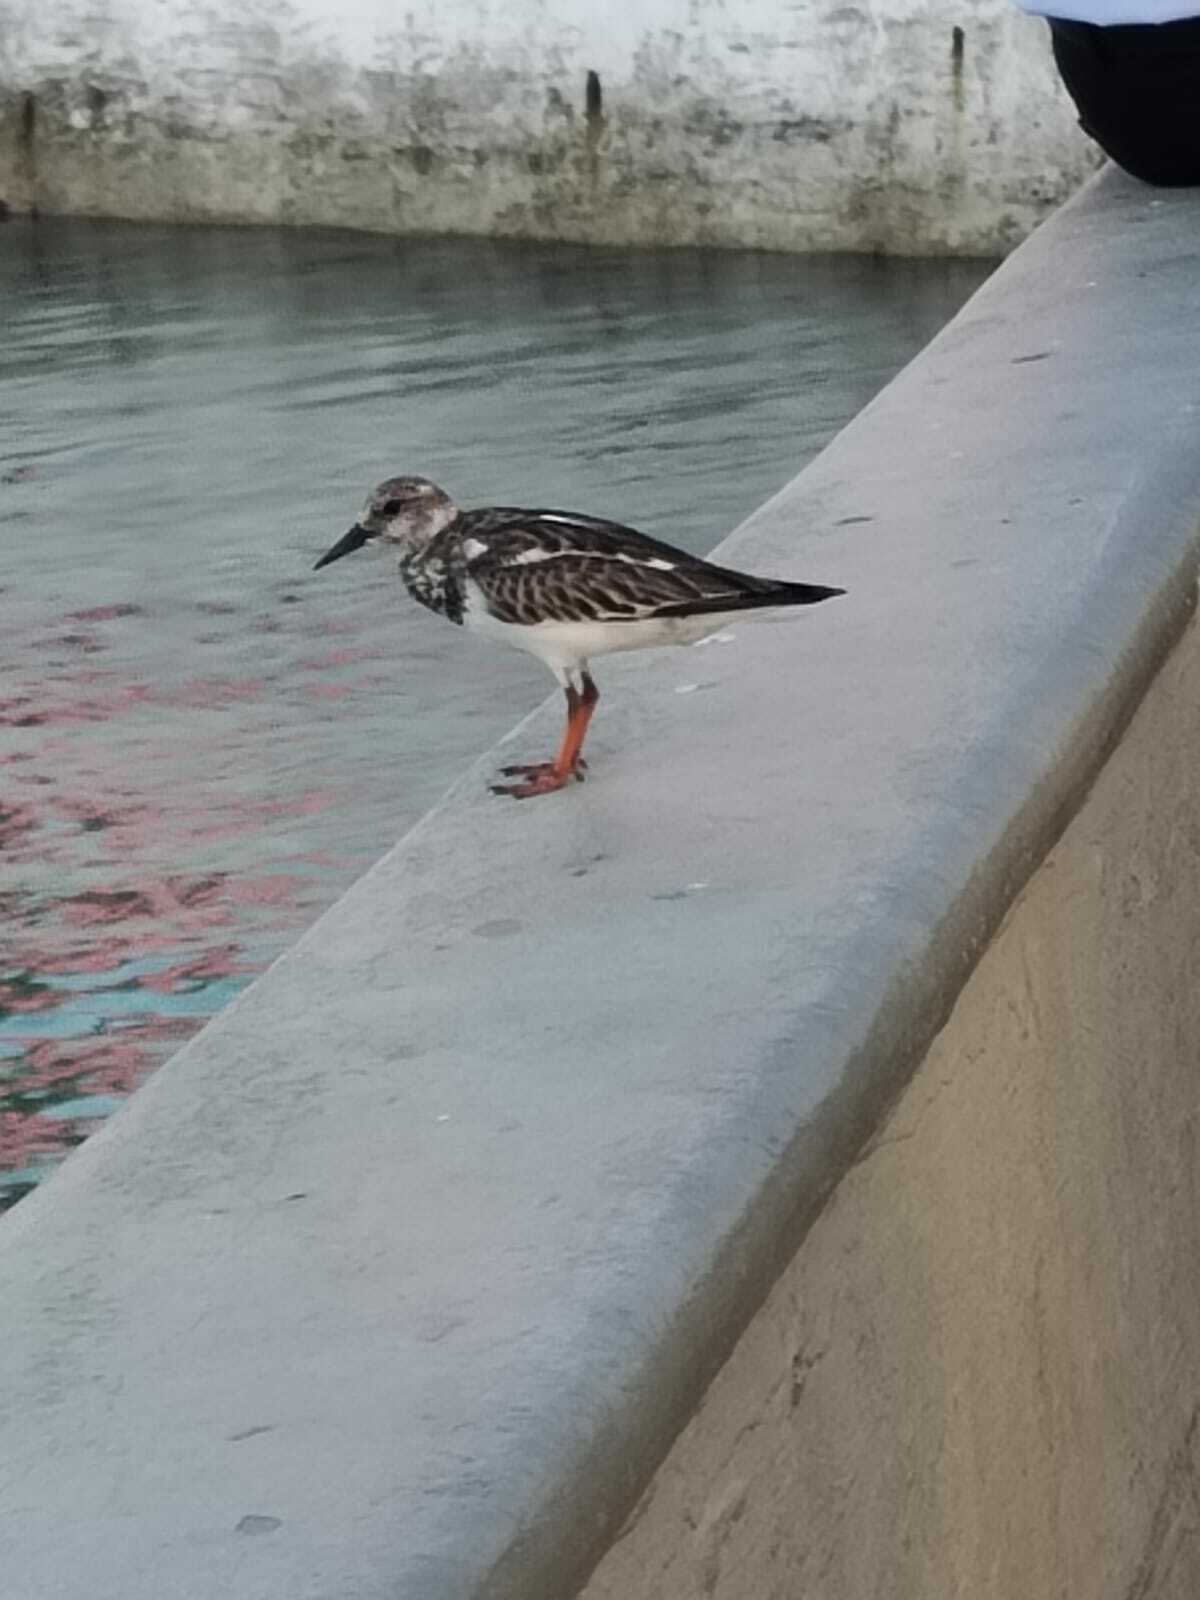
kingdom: Animalia
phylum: Chordata
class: Aves
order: Charadriiformes
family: Scolopacidae
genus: Arenaria
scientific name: Arenaria interpres
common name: Ruddy turnstone
